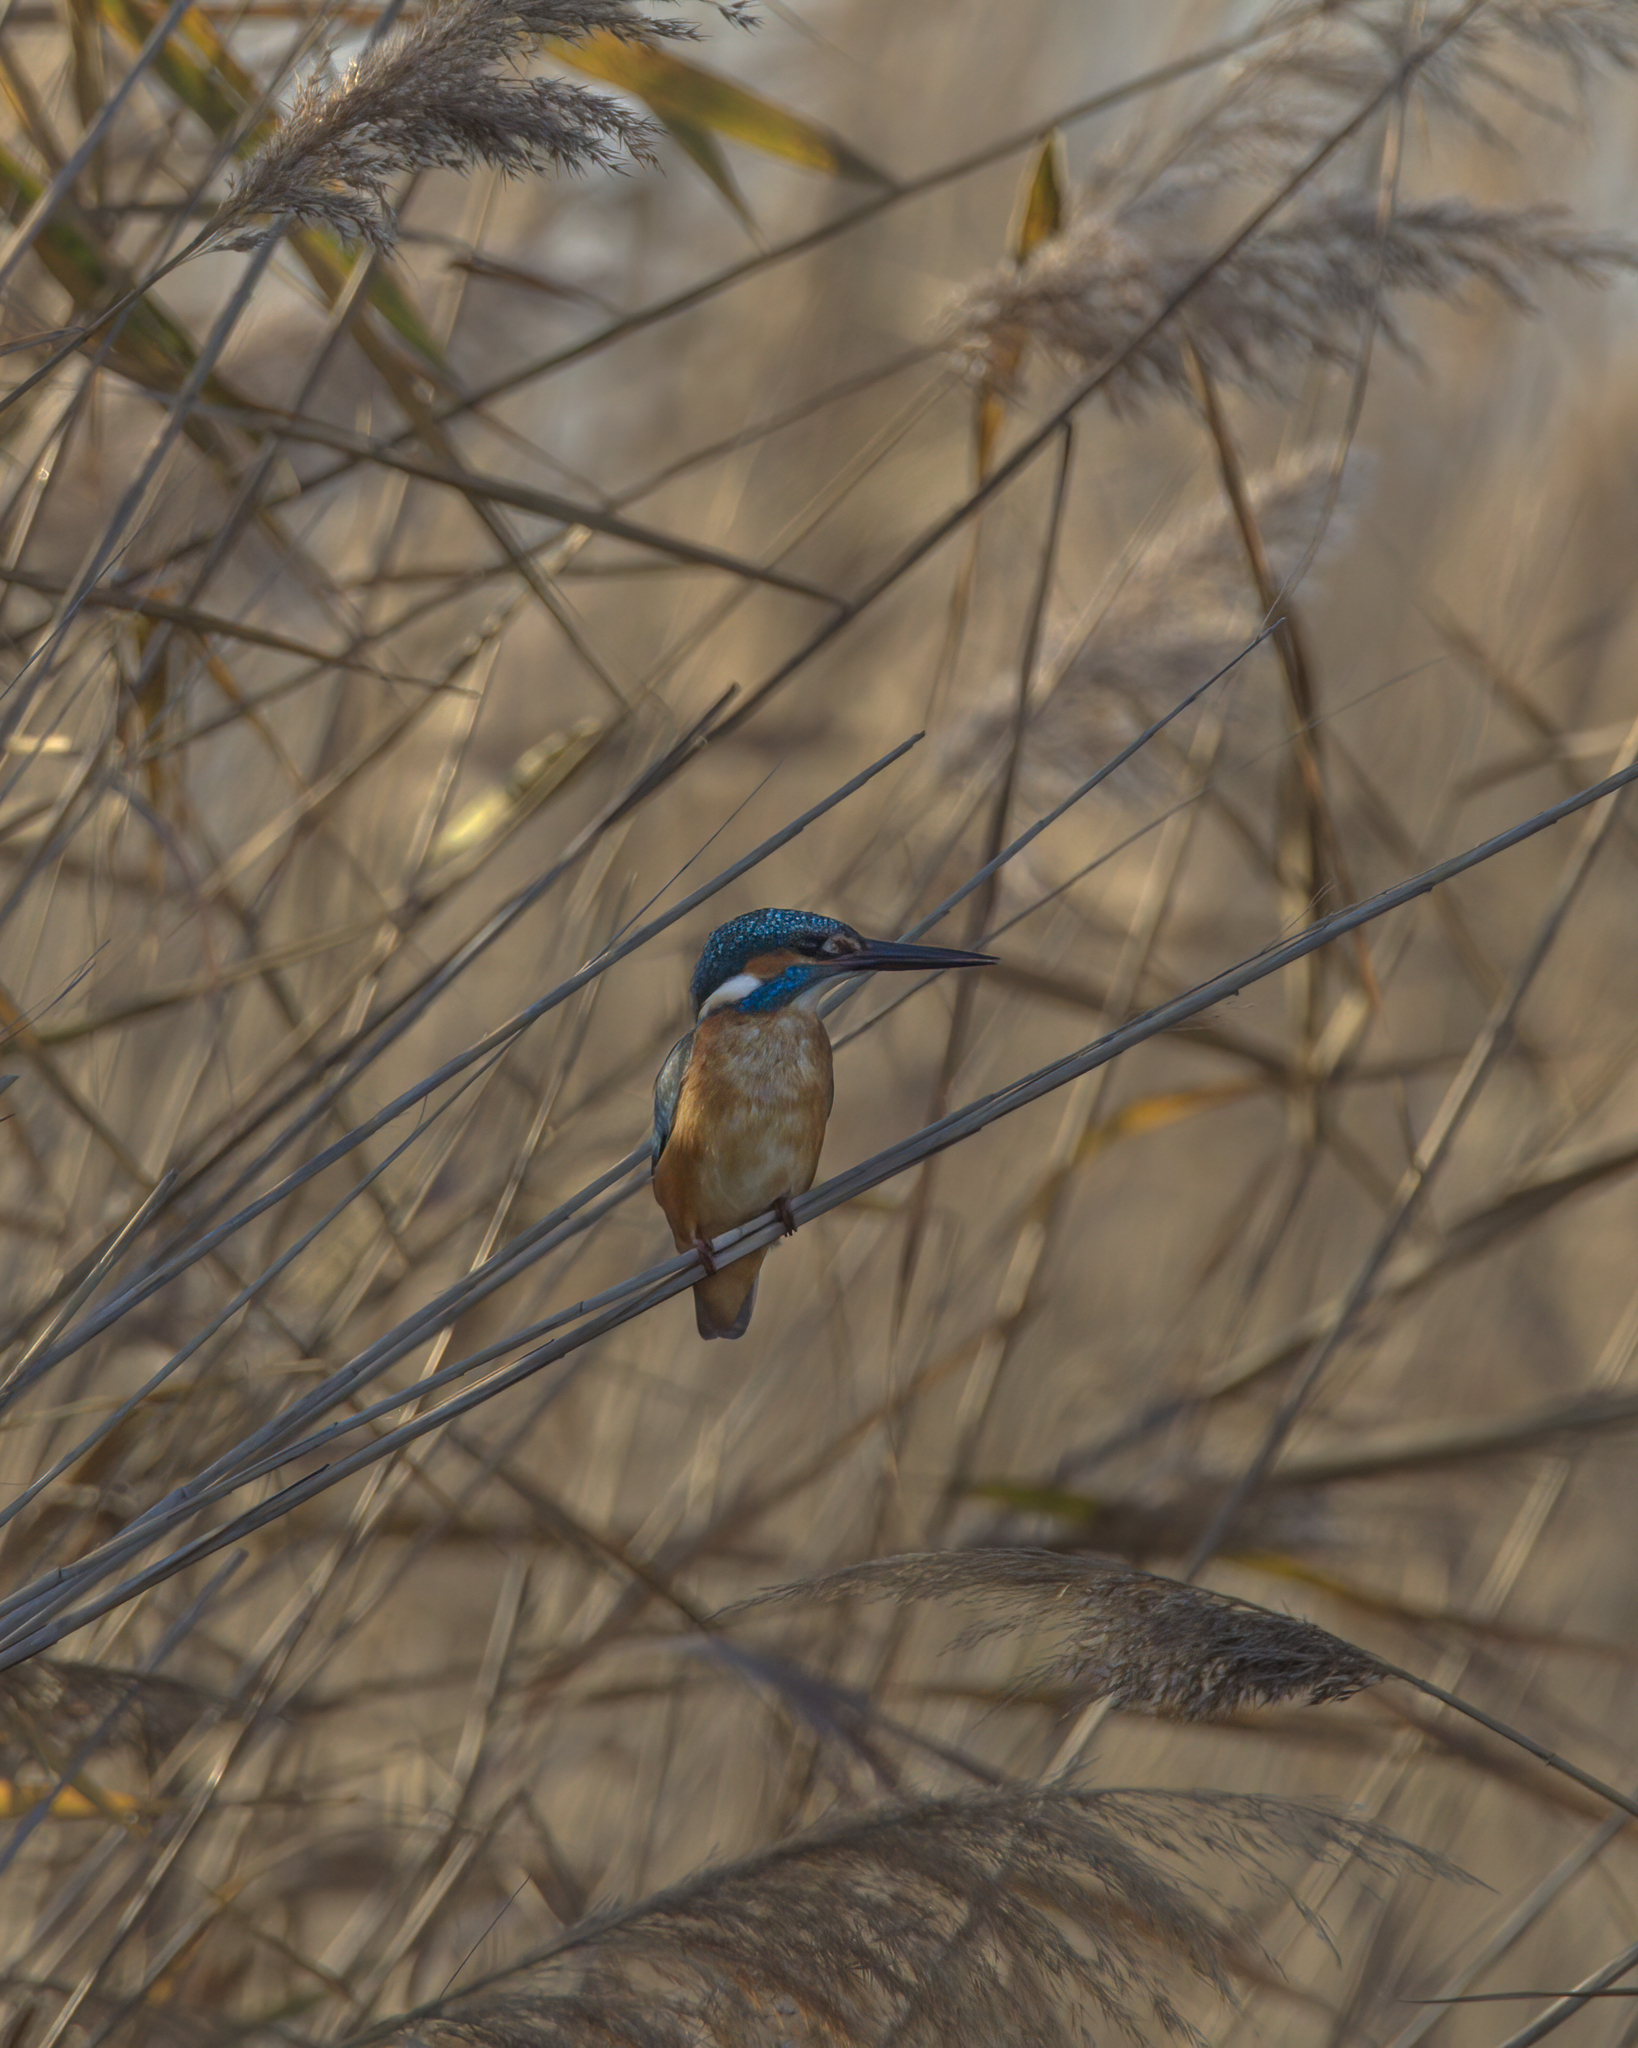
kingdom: Animalia
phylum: Chordata
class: Aves
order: Coraciiformes
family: Alcedinidae
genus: Alcedo
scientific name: Alcedo atthis
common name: Common kingfisher
